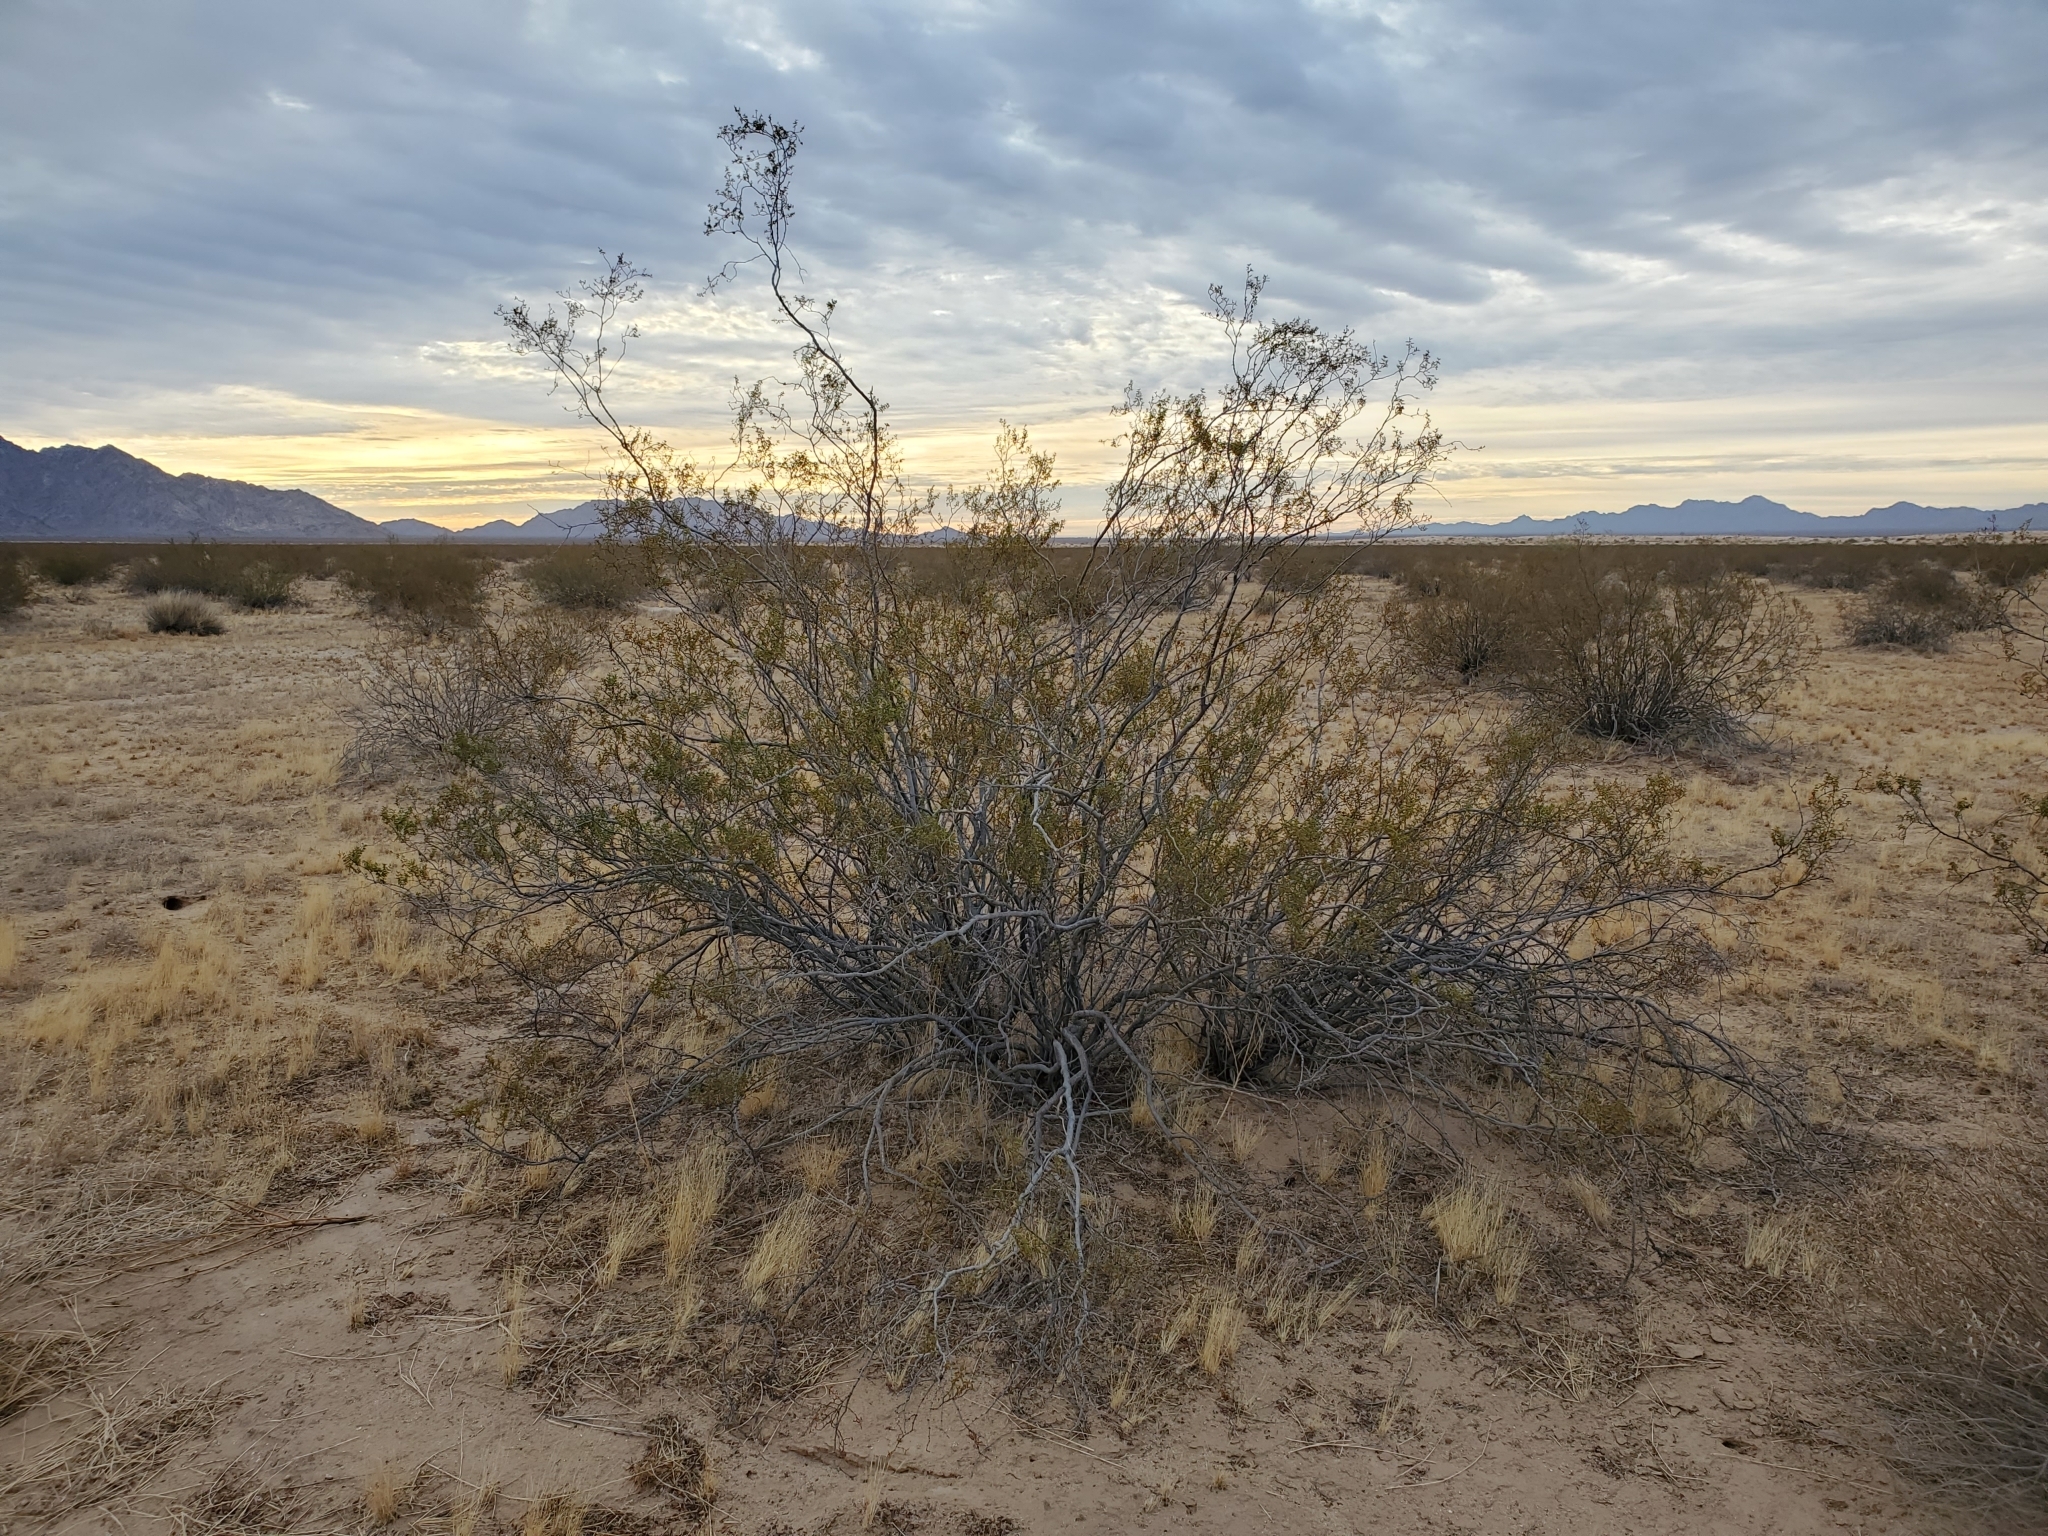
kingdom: Plantae
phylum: Tracheophyta
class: Magnoliopsida
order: Zygophyllales
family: Zygophyllaceae
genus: Larrea
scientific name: Larrea tridentata
